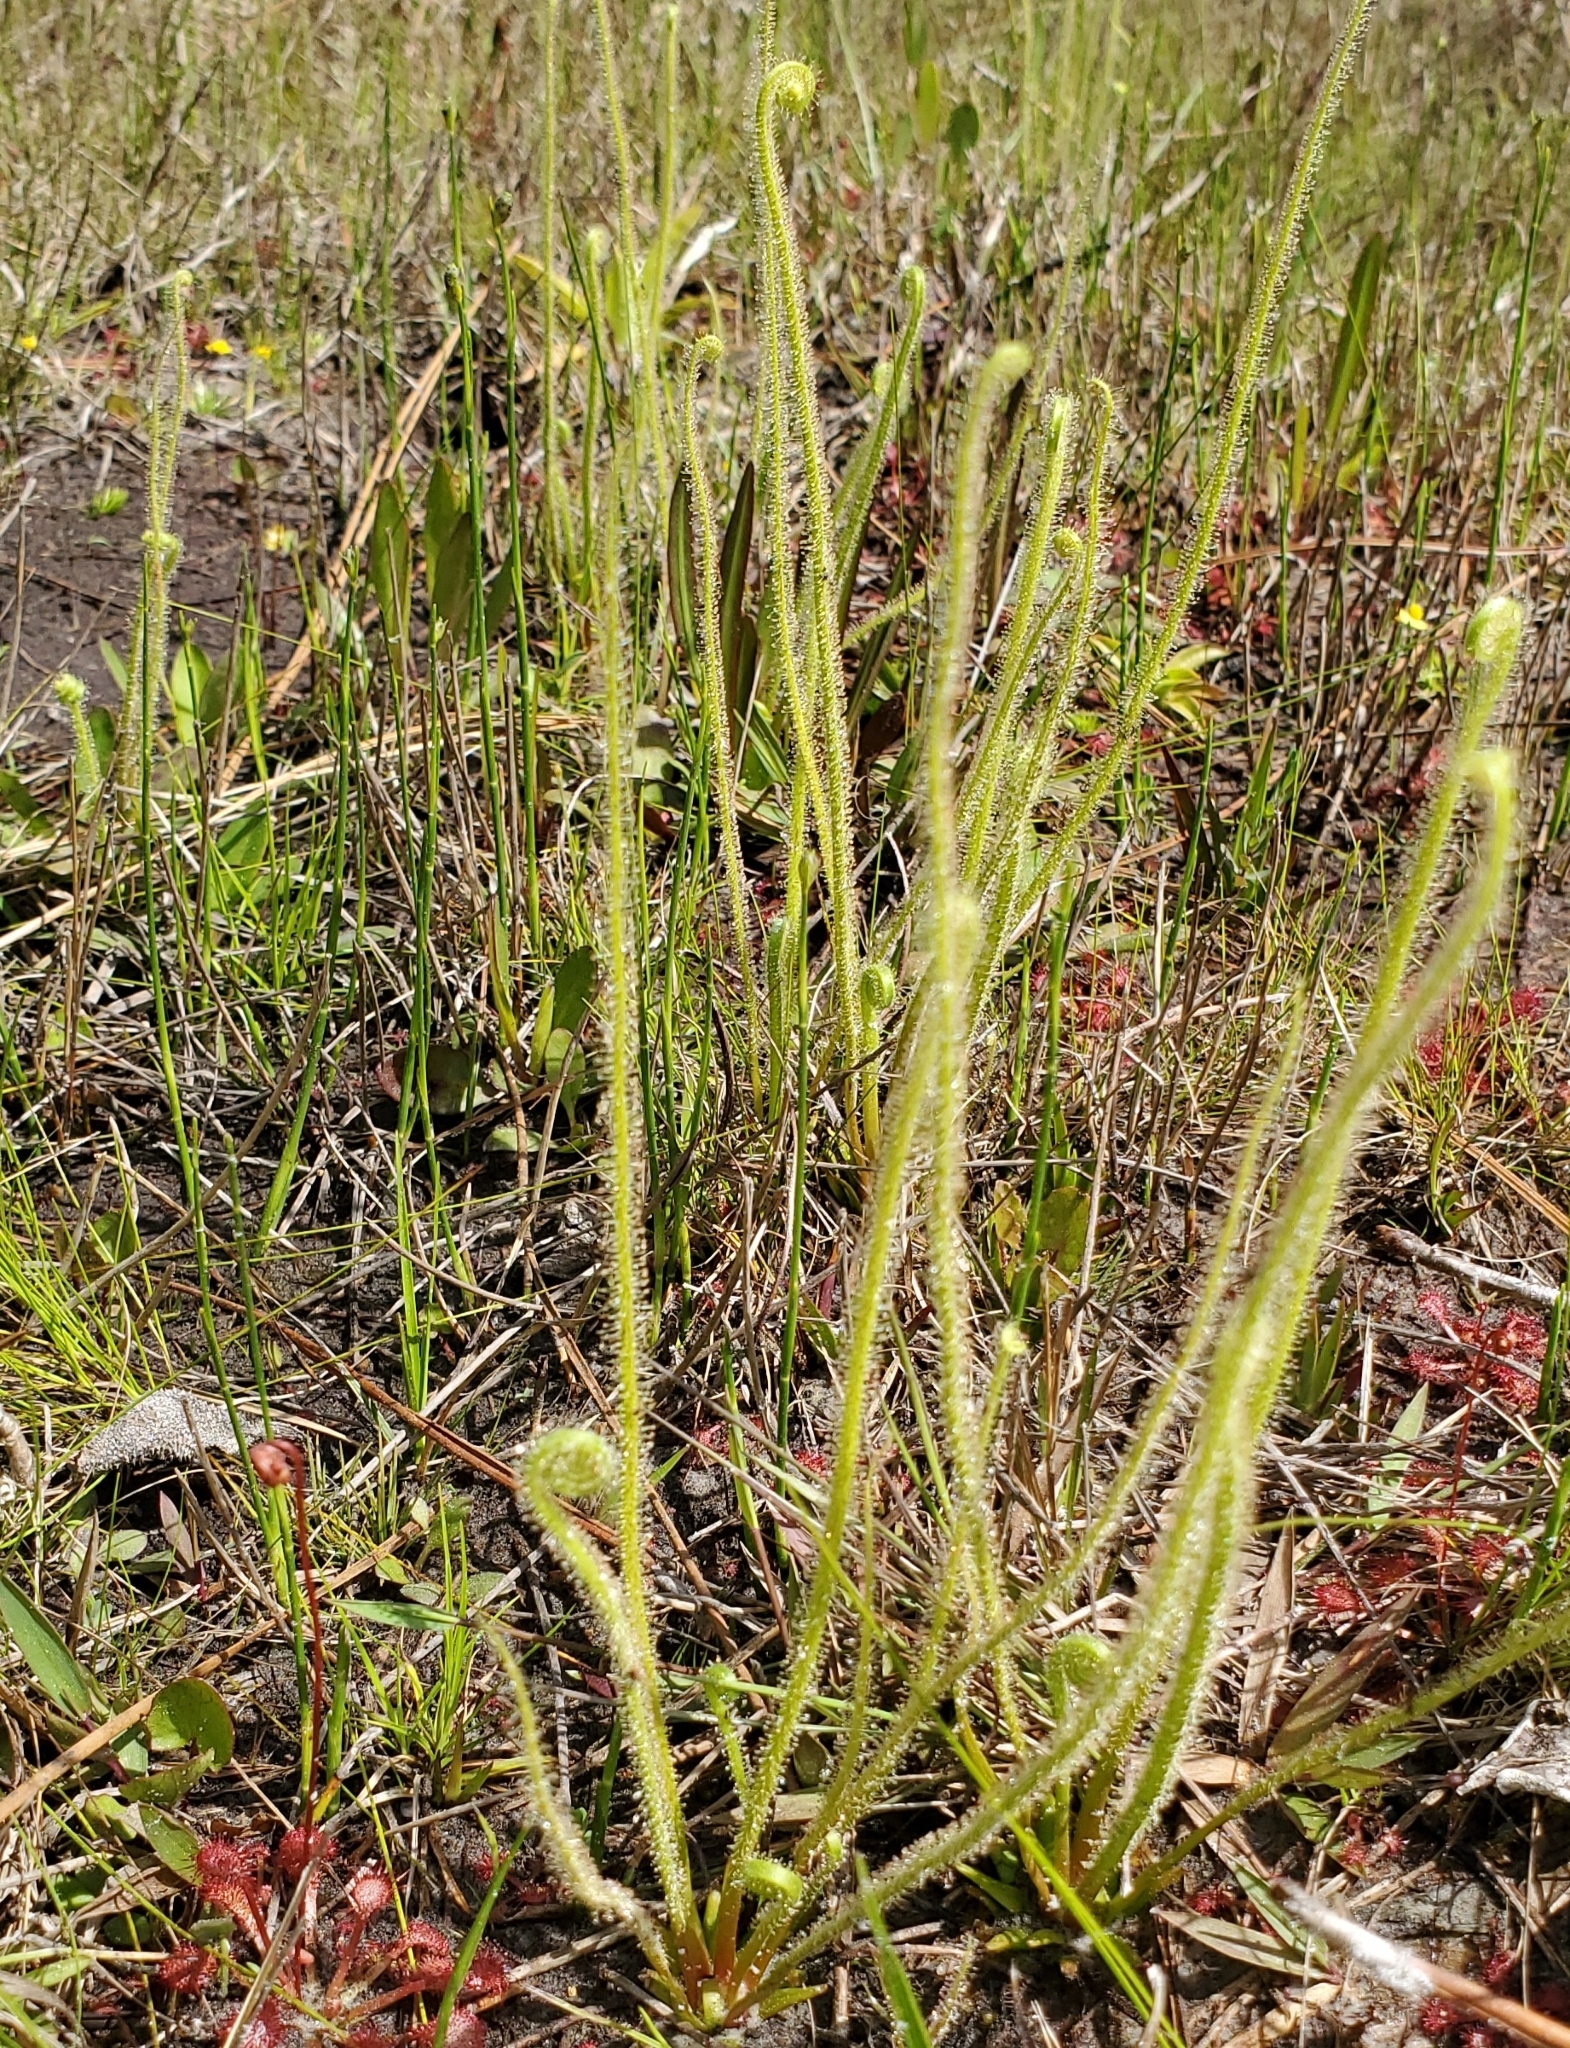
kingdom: Plantae
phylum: Tracheophyta
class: Magnoliopsida
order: Caryophyllales
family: Droseraceae
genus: Drosera
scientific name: Drosera filiformis
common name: Dew-thread
